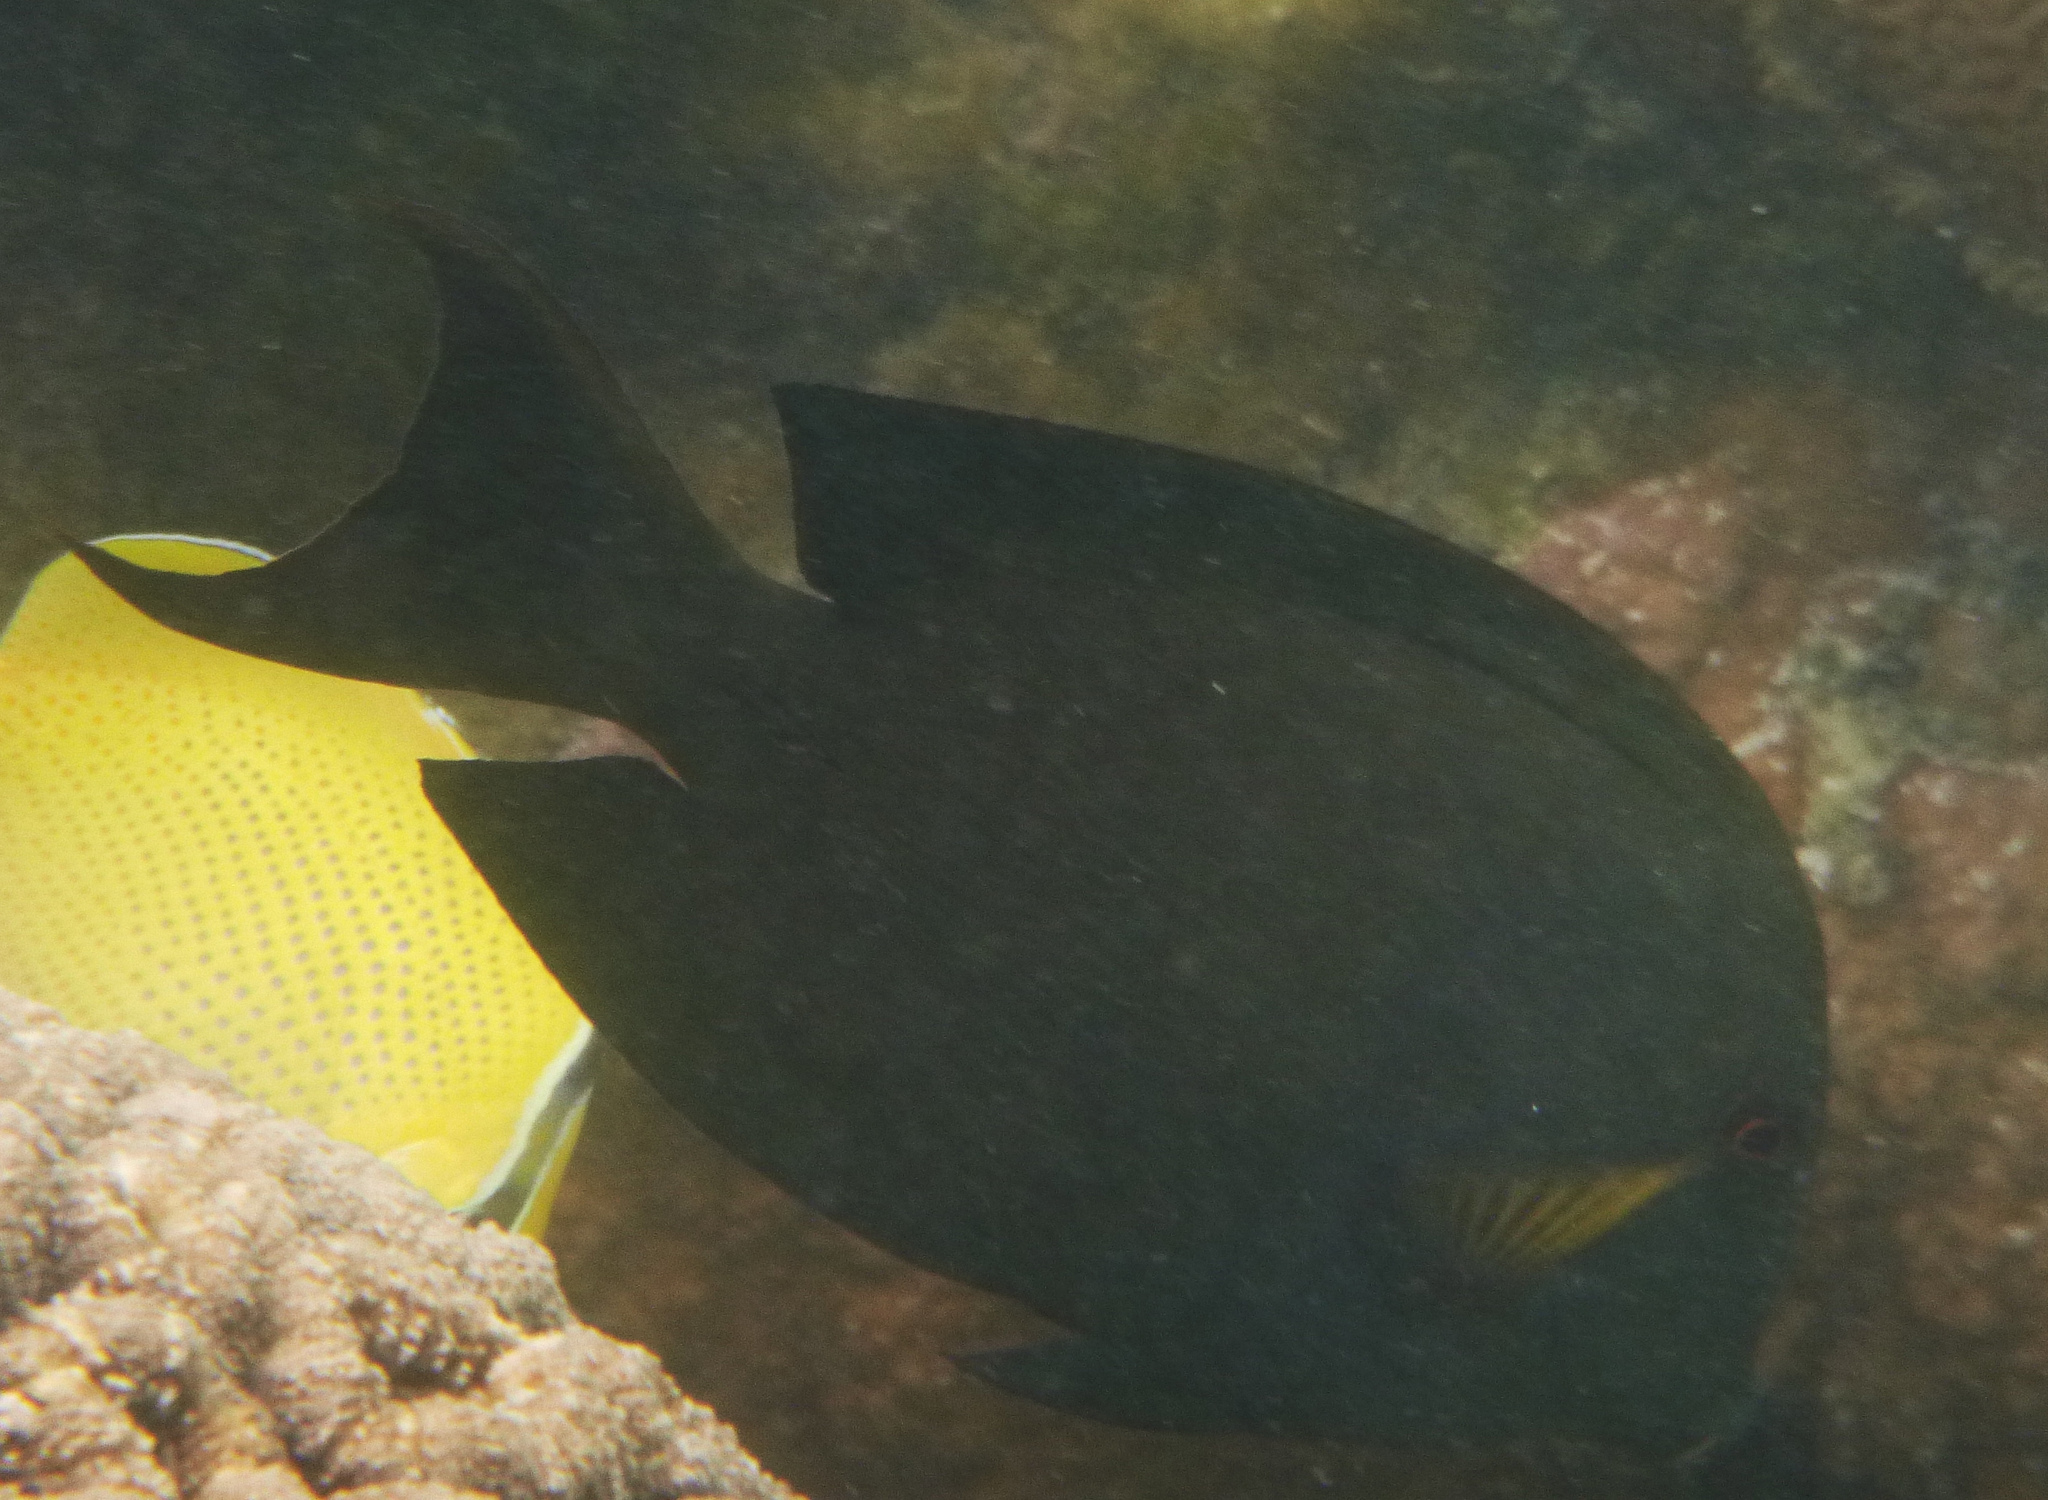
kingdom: Animalia
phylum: Chordata
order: Perciformes
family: Acanthuridae
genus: Ctenochaetus
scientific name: Ctenochaetus striatus
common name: Bristle-toothed surgeonfish
